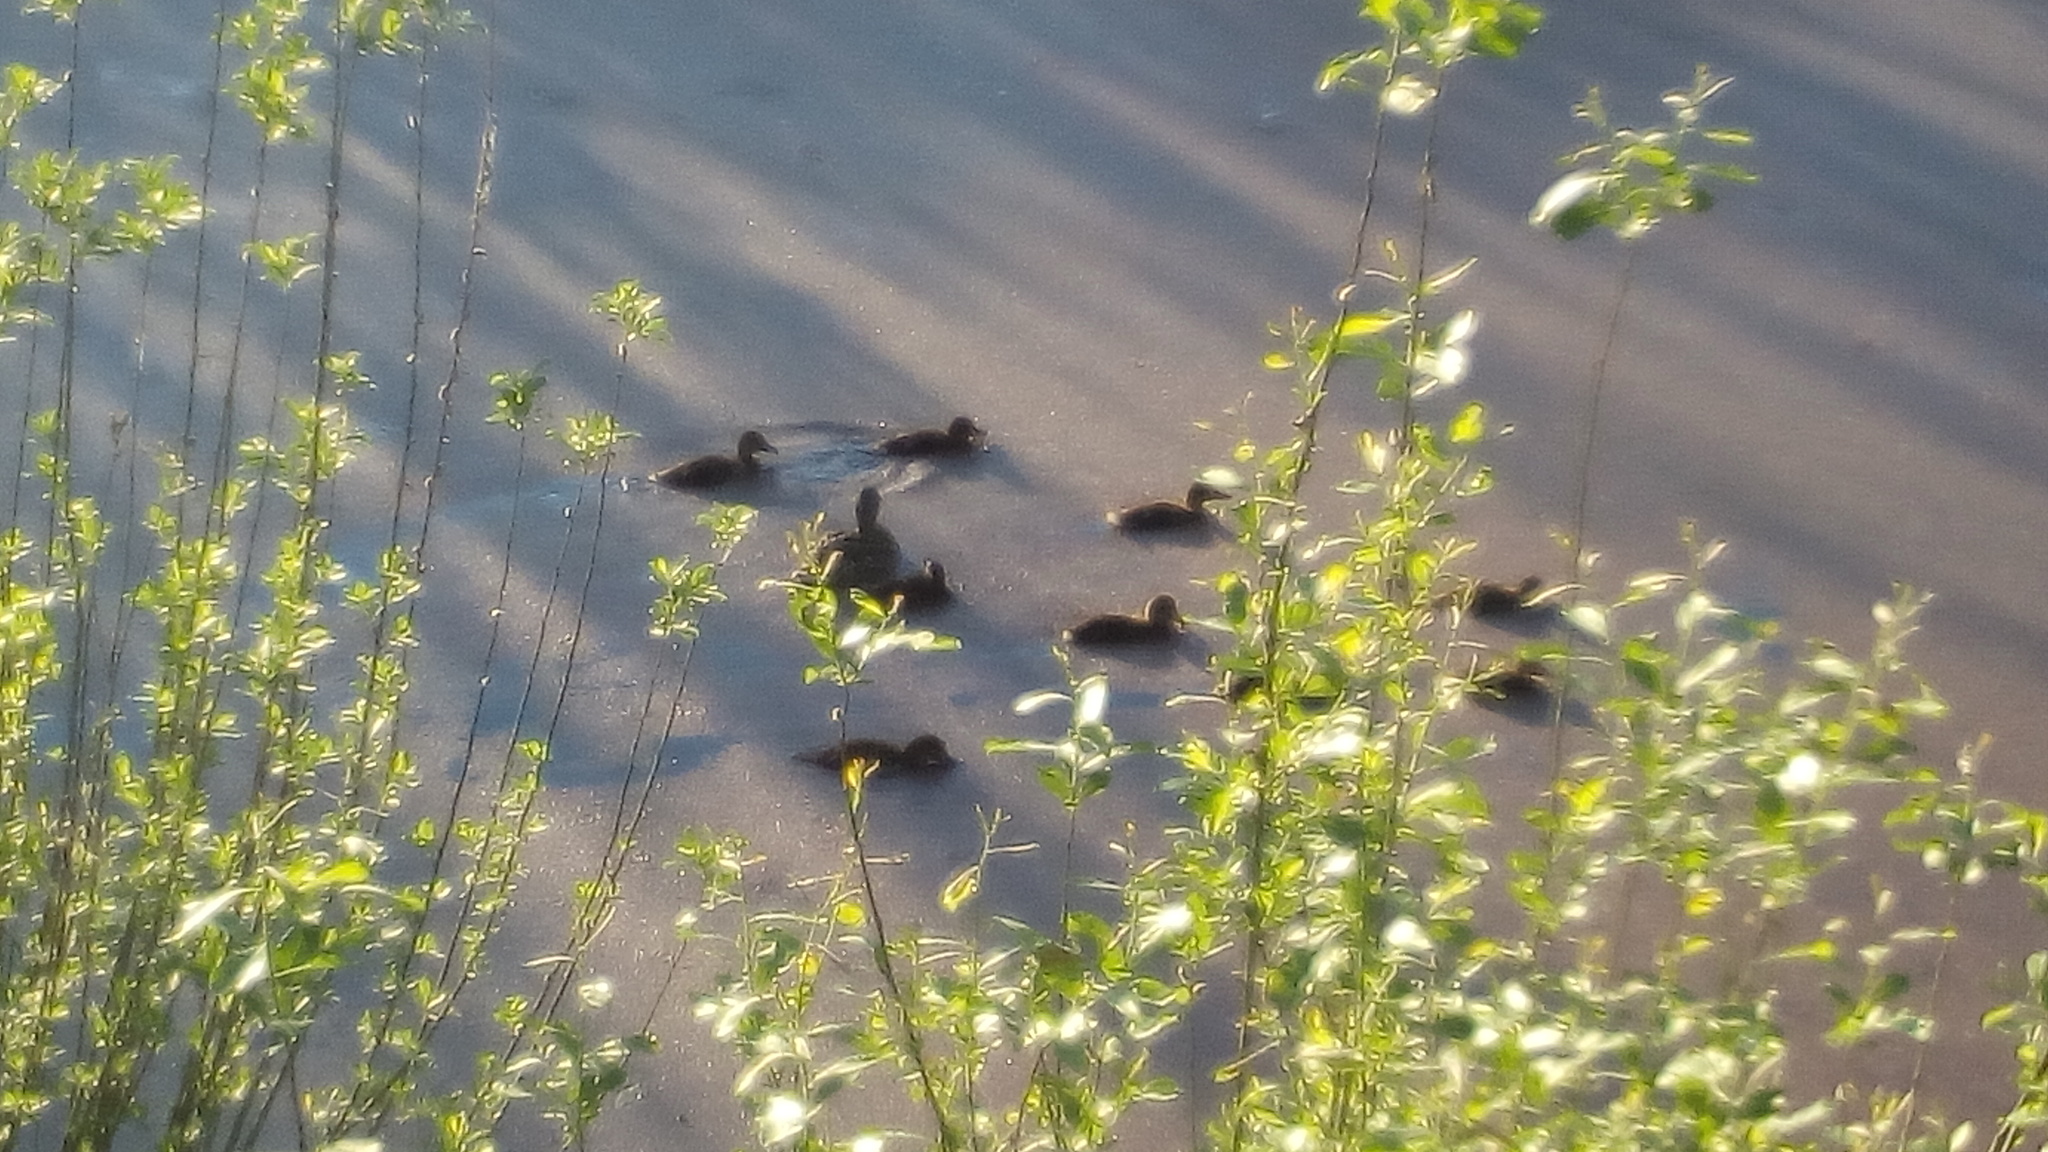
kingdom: Animalia
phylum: Chordata
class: Aves
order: Anseriformes
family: Anatidae
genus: Anas
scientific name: Anas platyrhynchos
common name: Mallard
